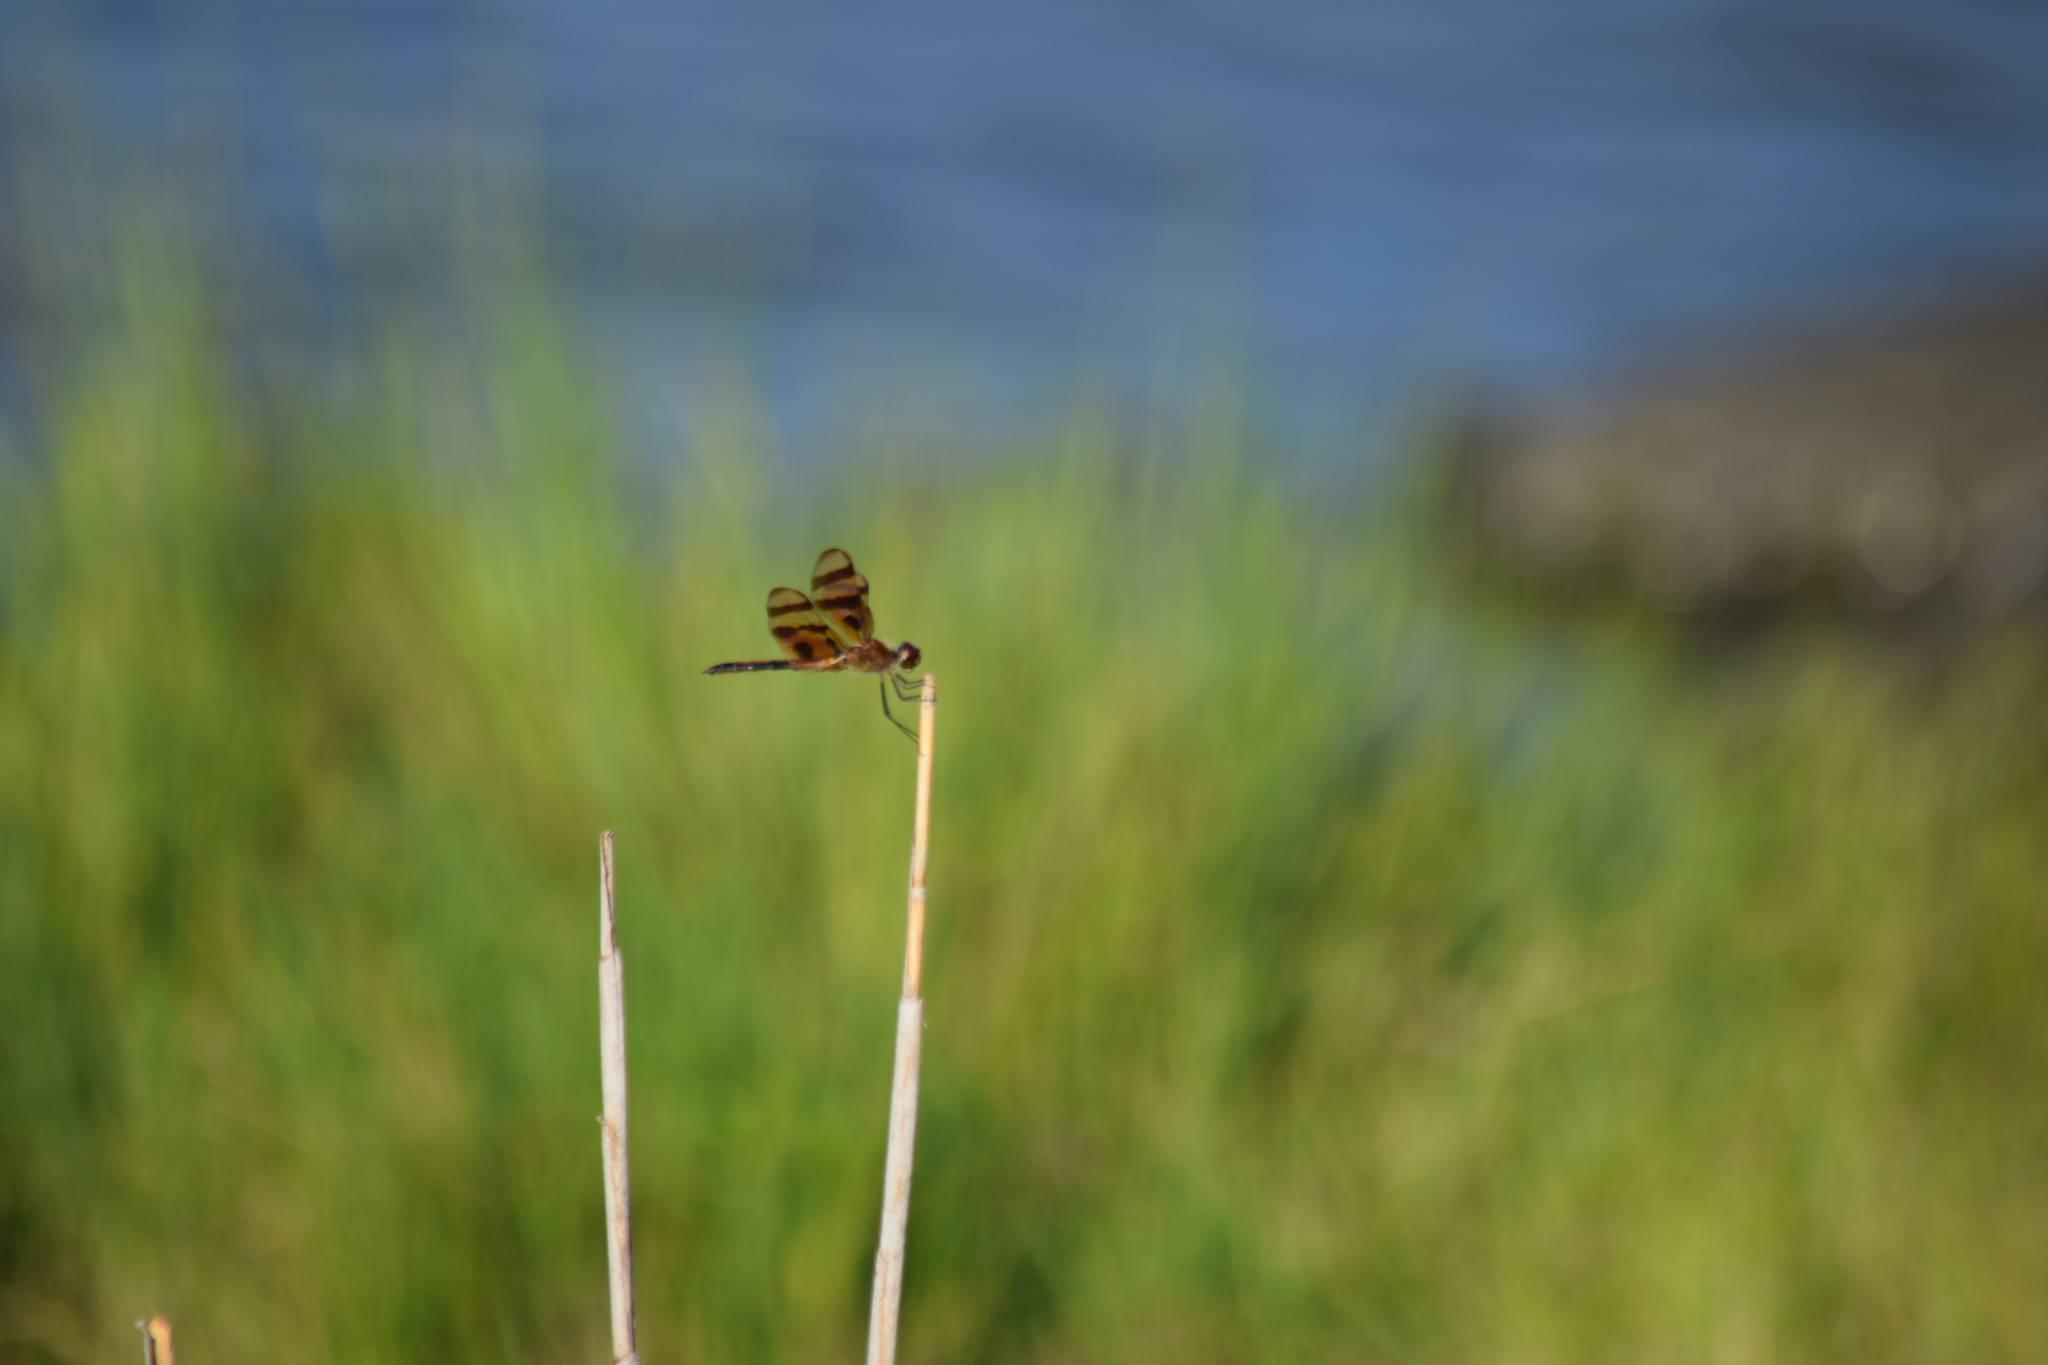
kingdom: Animalia
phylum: Arthropoda
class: Insecta
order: Odonata
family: Libellulidae
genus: Celithemis
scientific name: Celithemis eponina
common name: Halloween pennant
